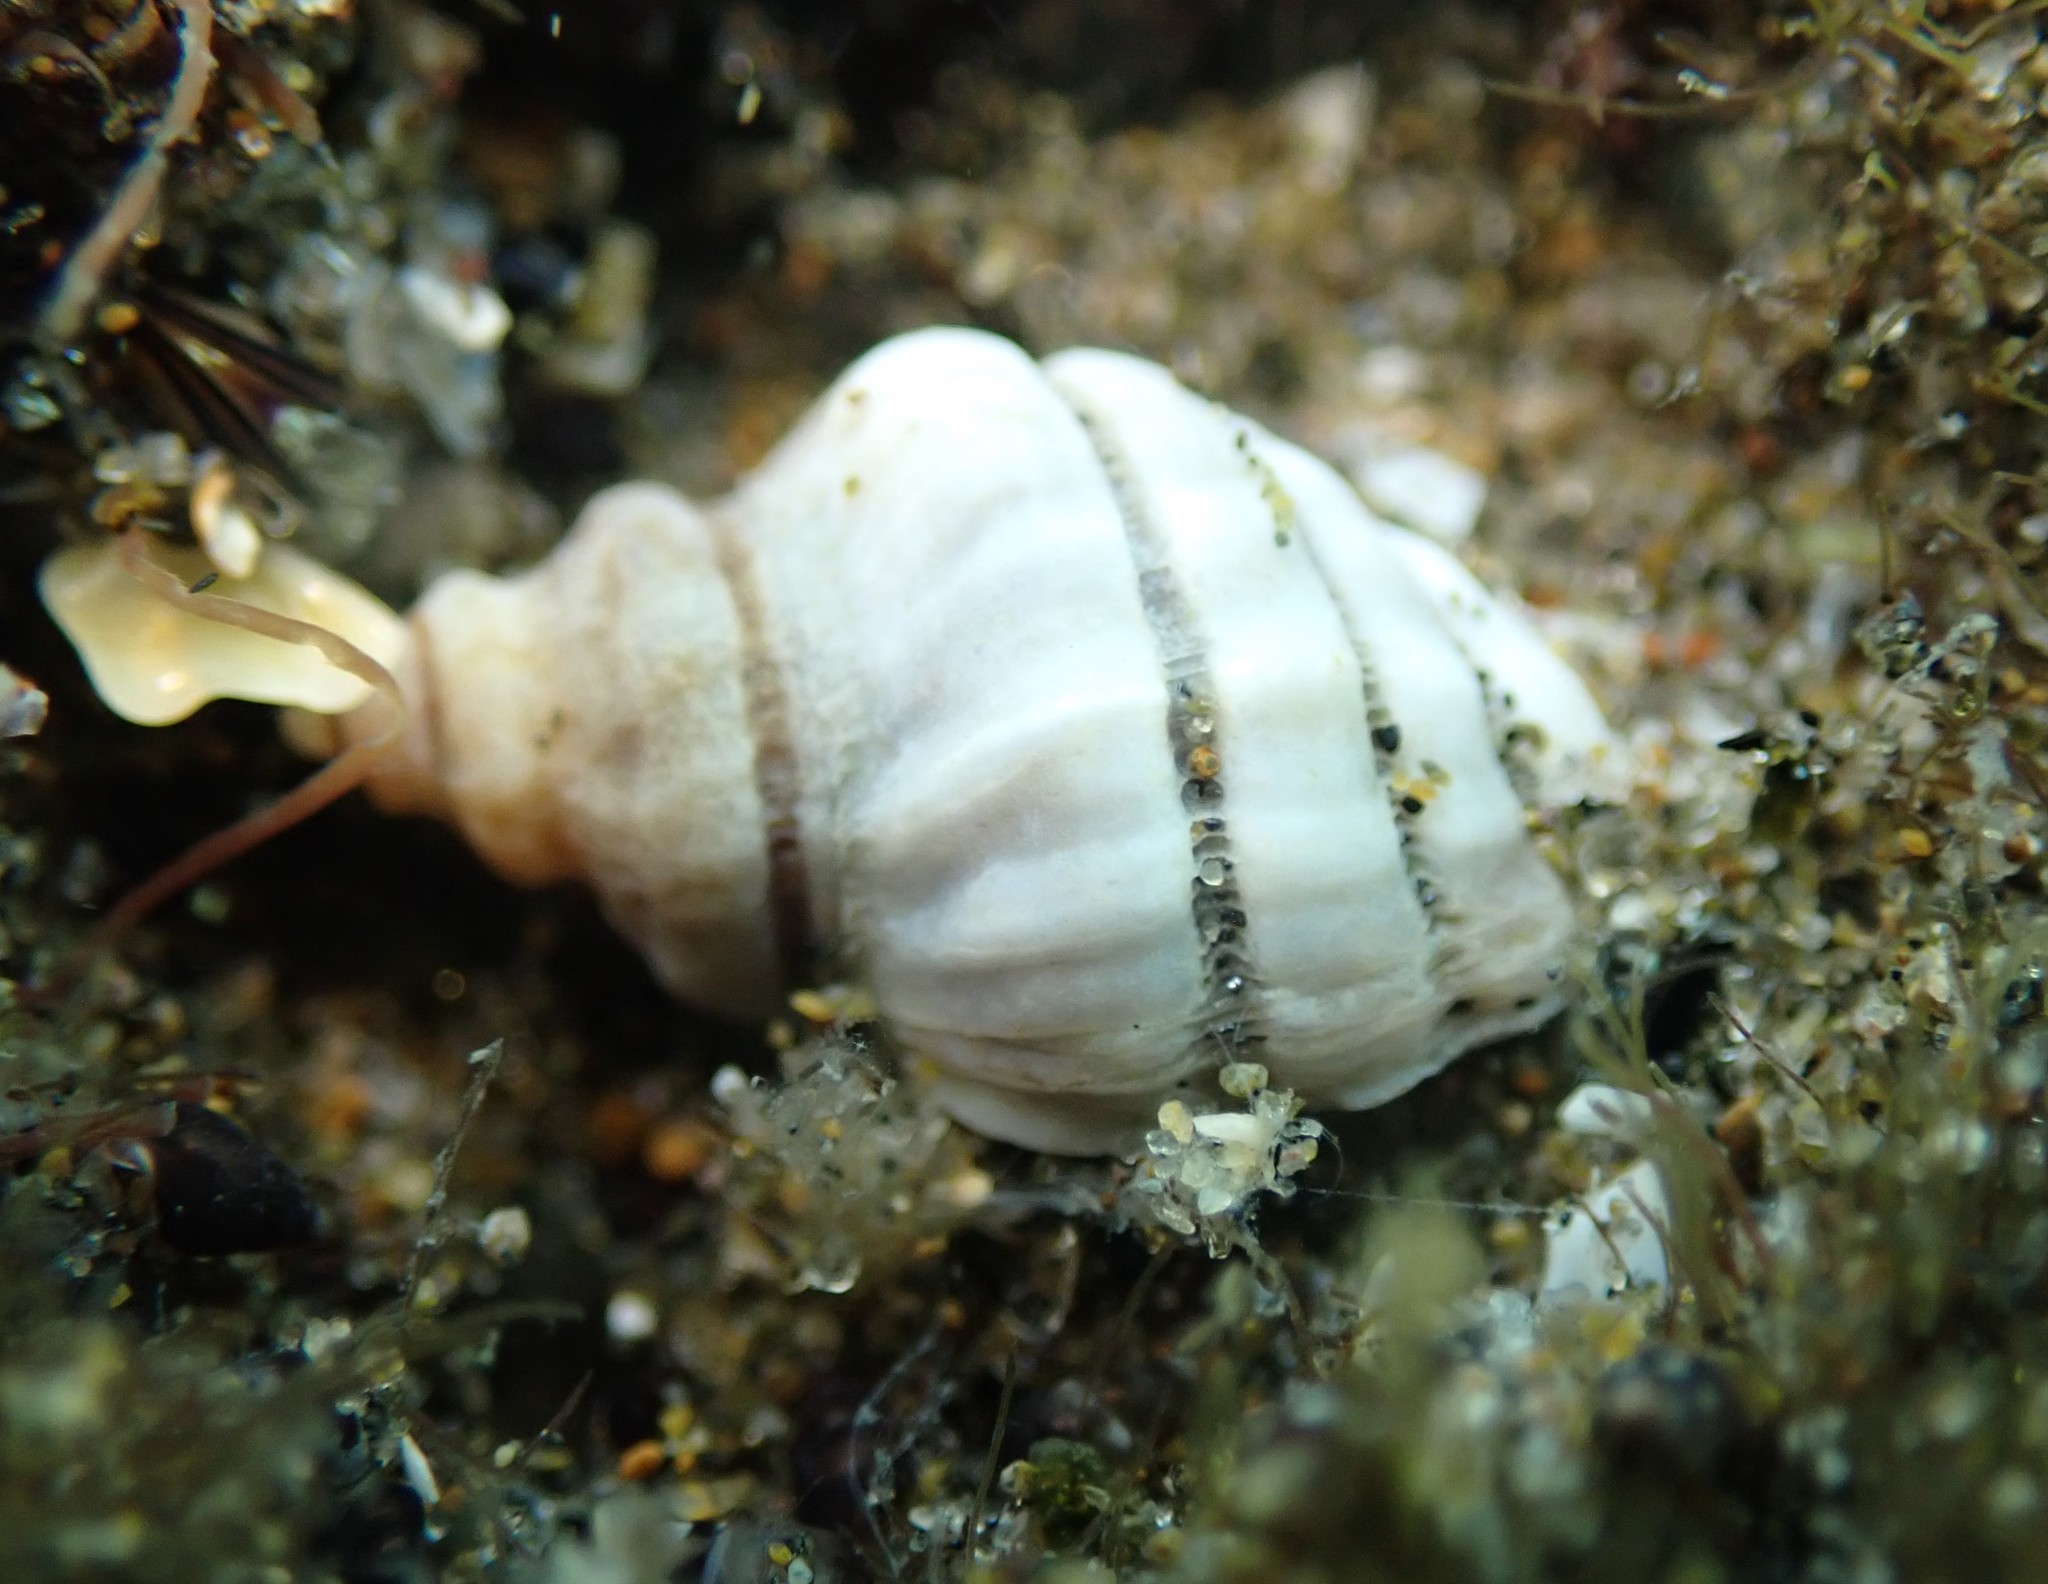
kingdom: Animalia
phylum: Mollusca
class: Gastropoda
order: Neogastropoda
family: Muricidae
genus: Paratrophon
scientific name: Paratrophon cheesemani
